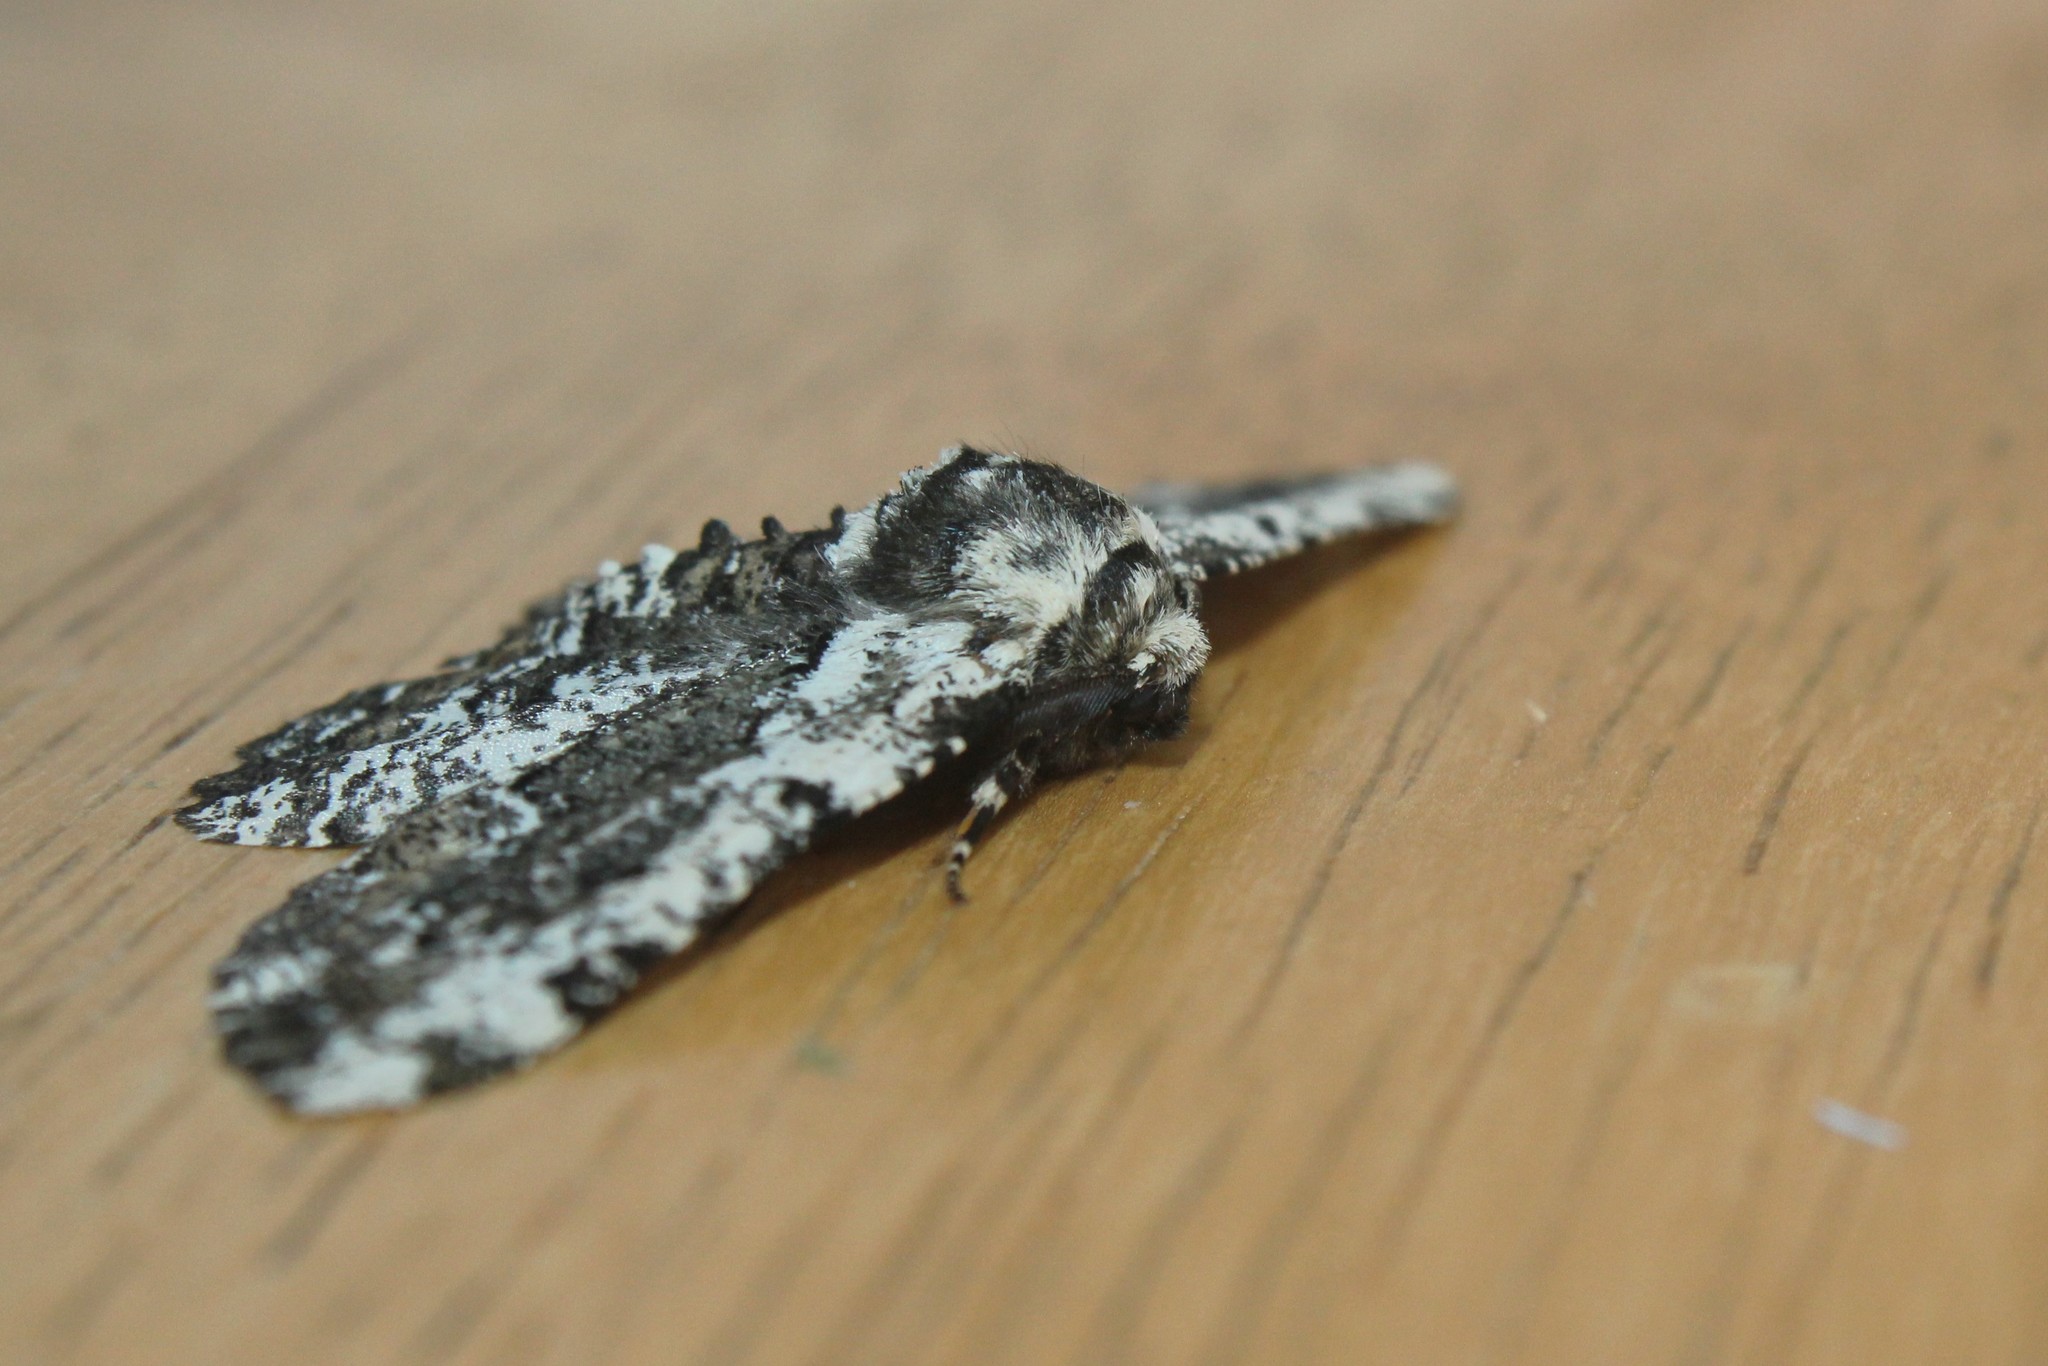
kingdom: Animalia
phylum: Arthropoda
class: Insecta
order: Lepidoptera
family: Geometridae
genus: Phaeoura
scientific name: Phaeoura quernaria
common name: Oak beauty
